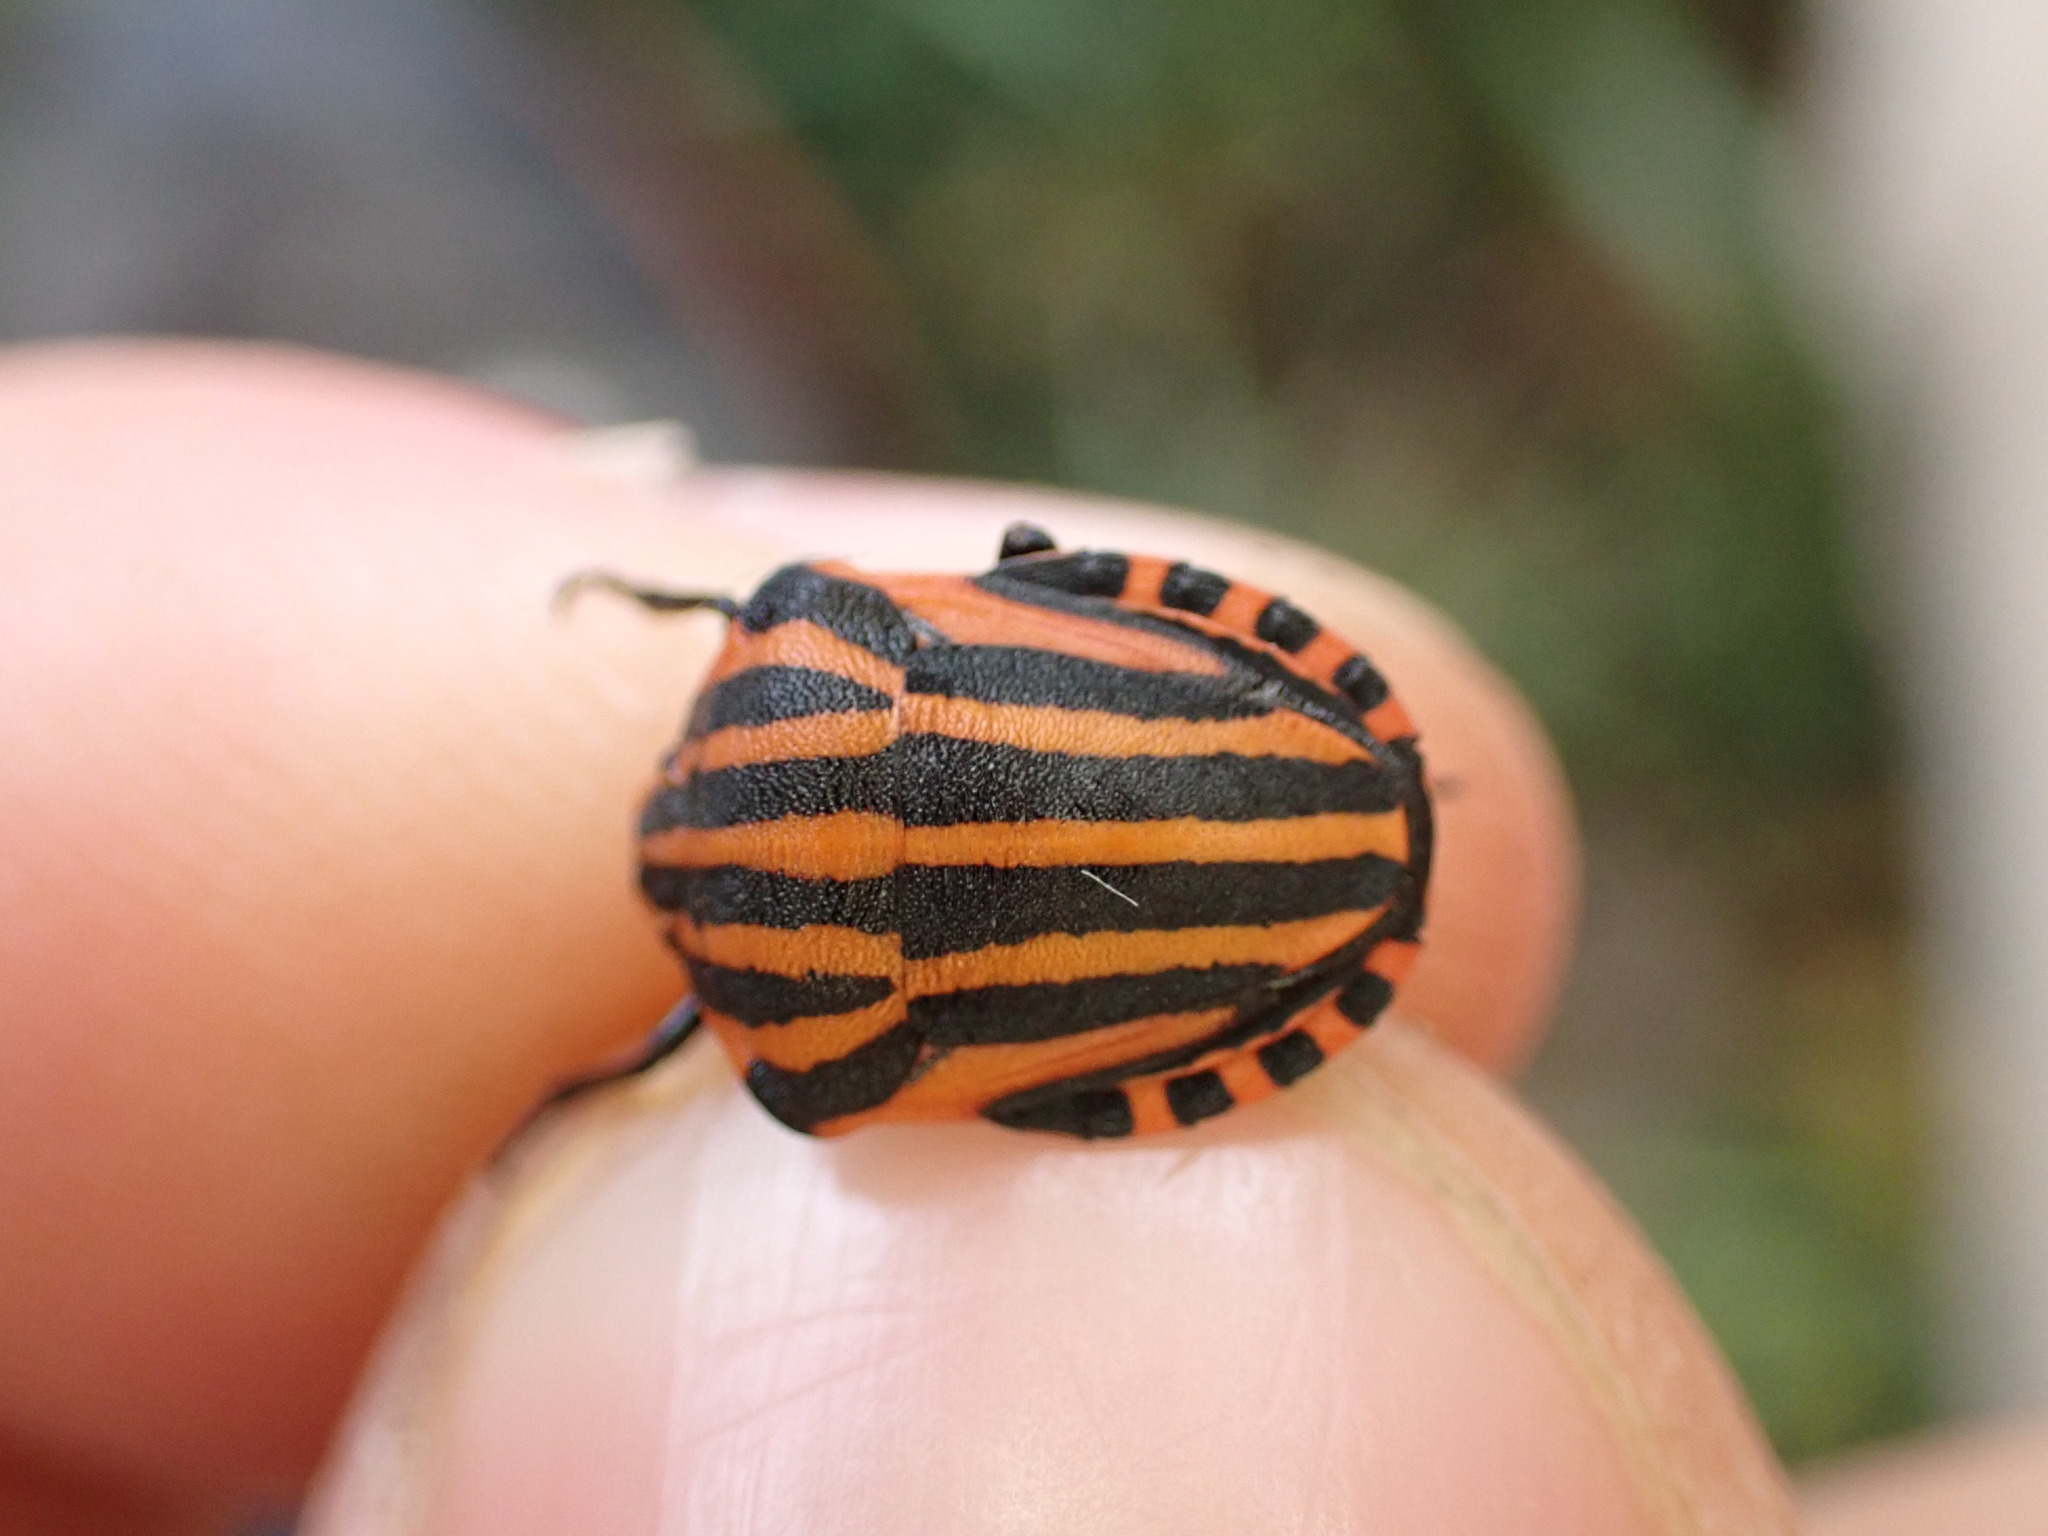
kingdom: Animalia
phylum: Arthropoda
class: Insecta
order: Hemiptera
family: Pentatomidae
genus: Graphosoma
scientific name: Graphosoma italicum
